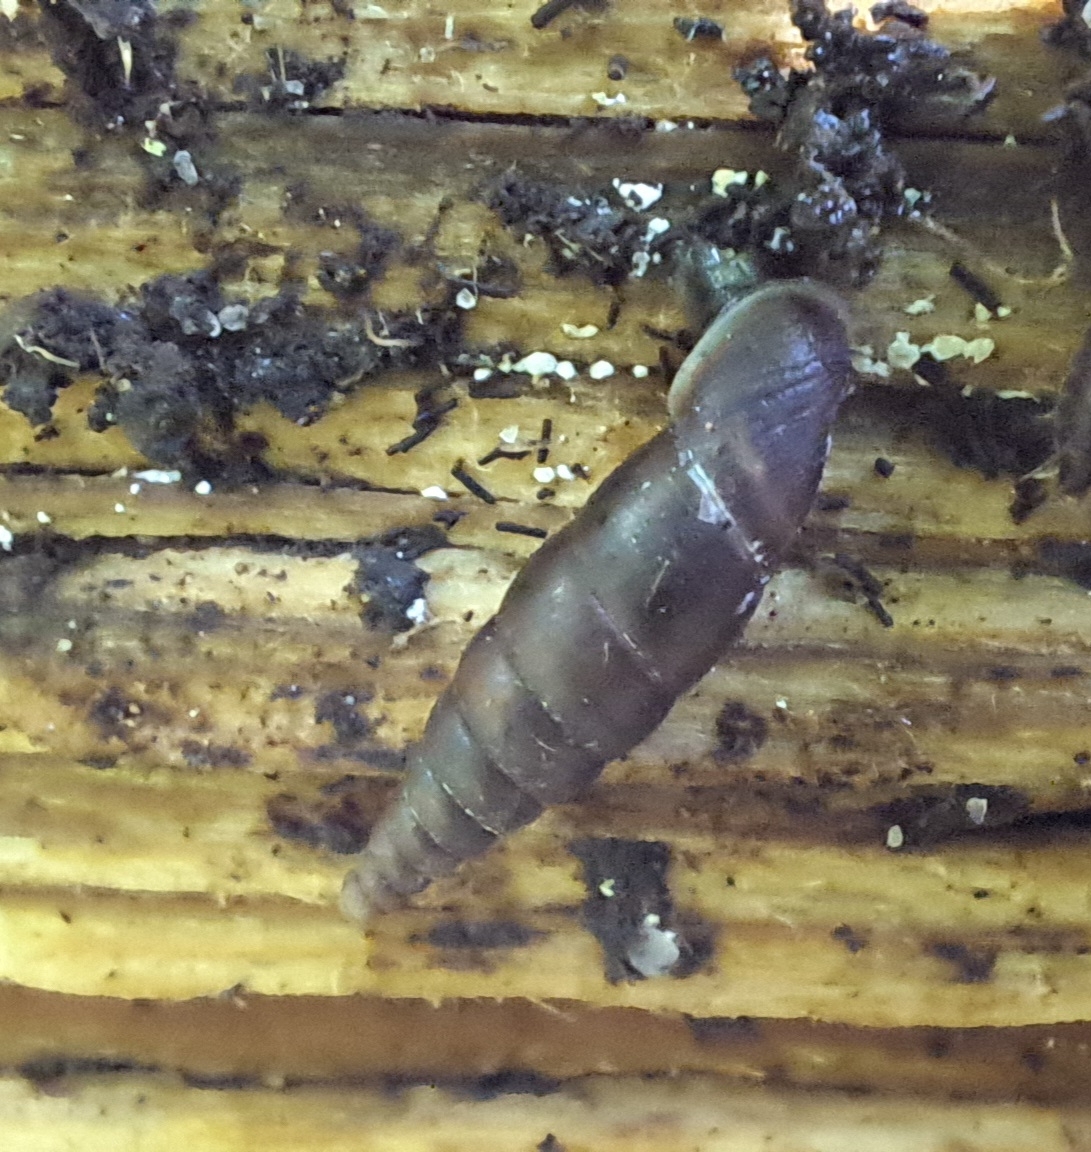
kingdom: Animalia
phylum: Mollusca
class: Gastropoda
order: Stylommatophora
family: Clausiliidae
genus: Cochlodina
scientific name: Cochlodina laminata
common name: Plaited door snail
